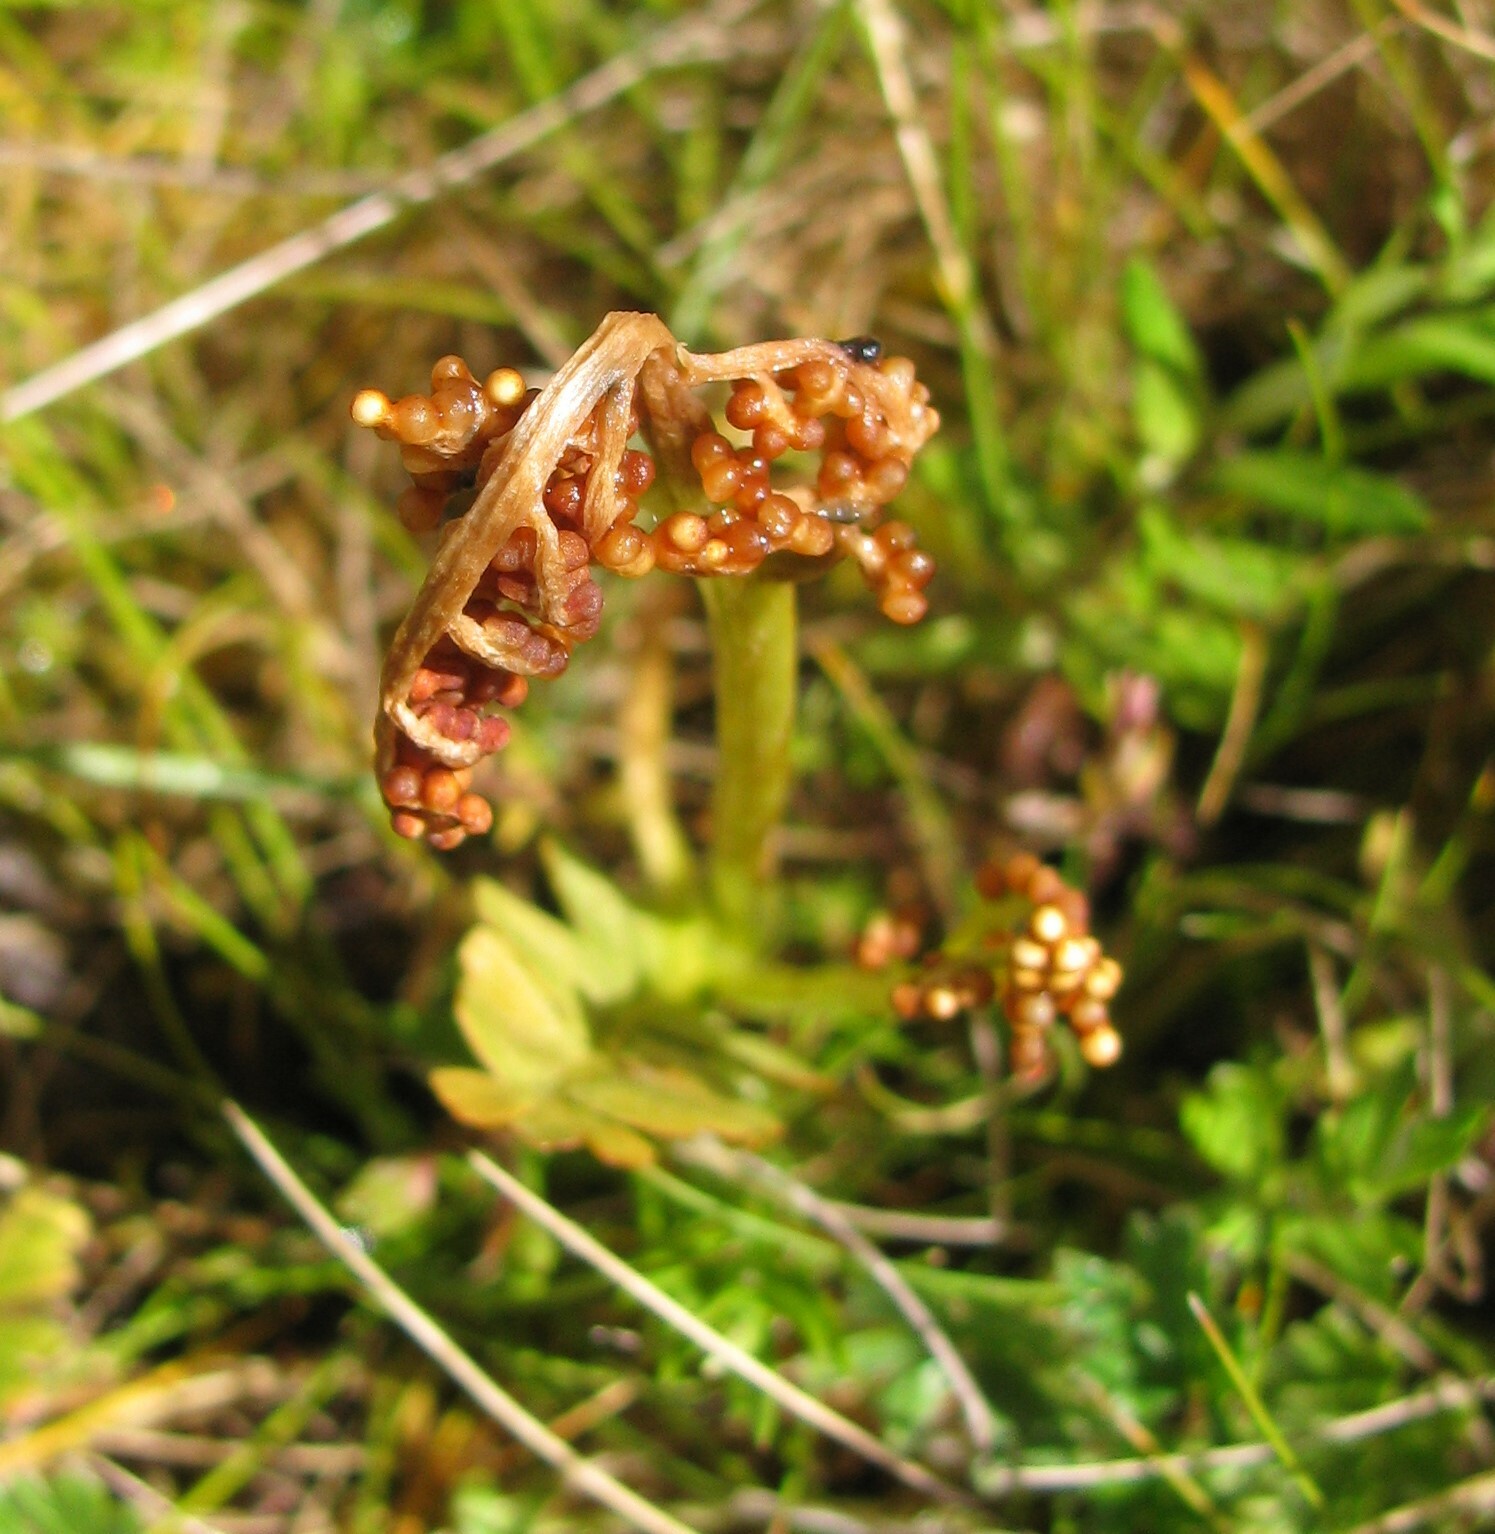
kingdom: Plantae
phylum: Tracheophyta
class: Polypodiopsida
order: Ophioglossales
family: Ophioglossaceae
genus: Botrychium
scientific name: Botrychium lunaria
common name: Moonwort
